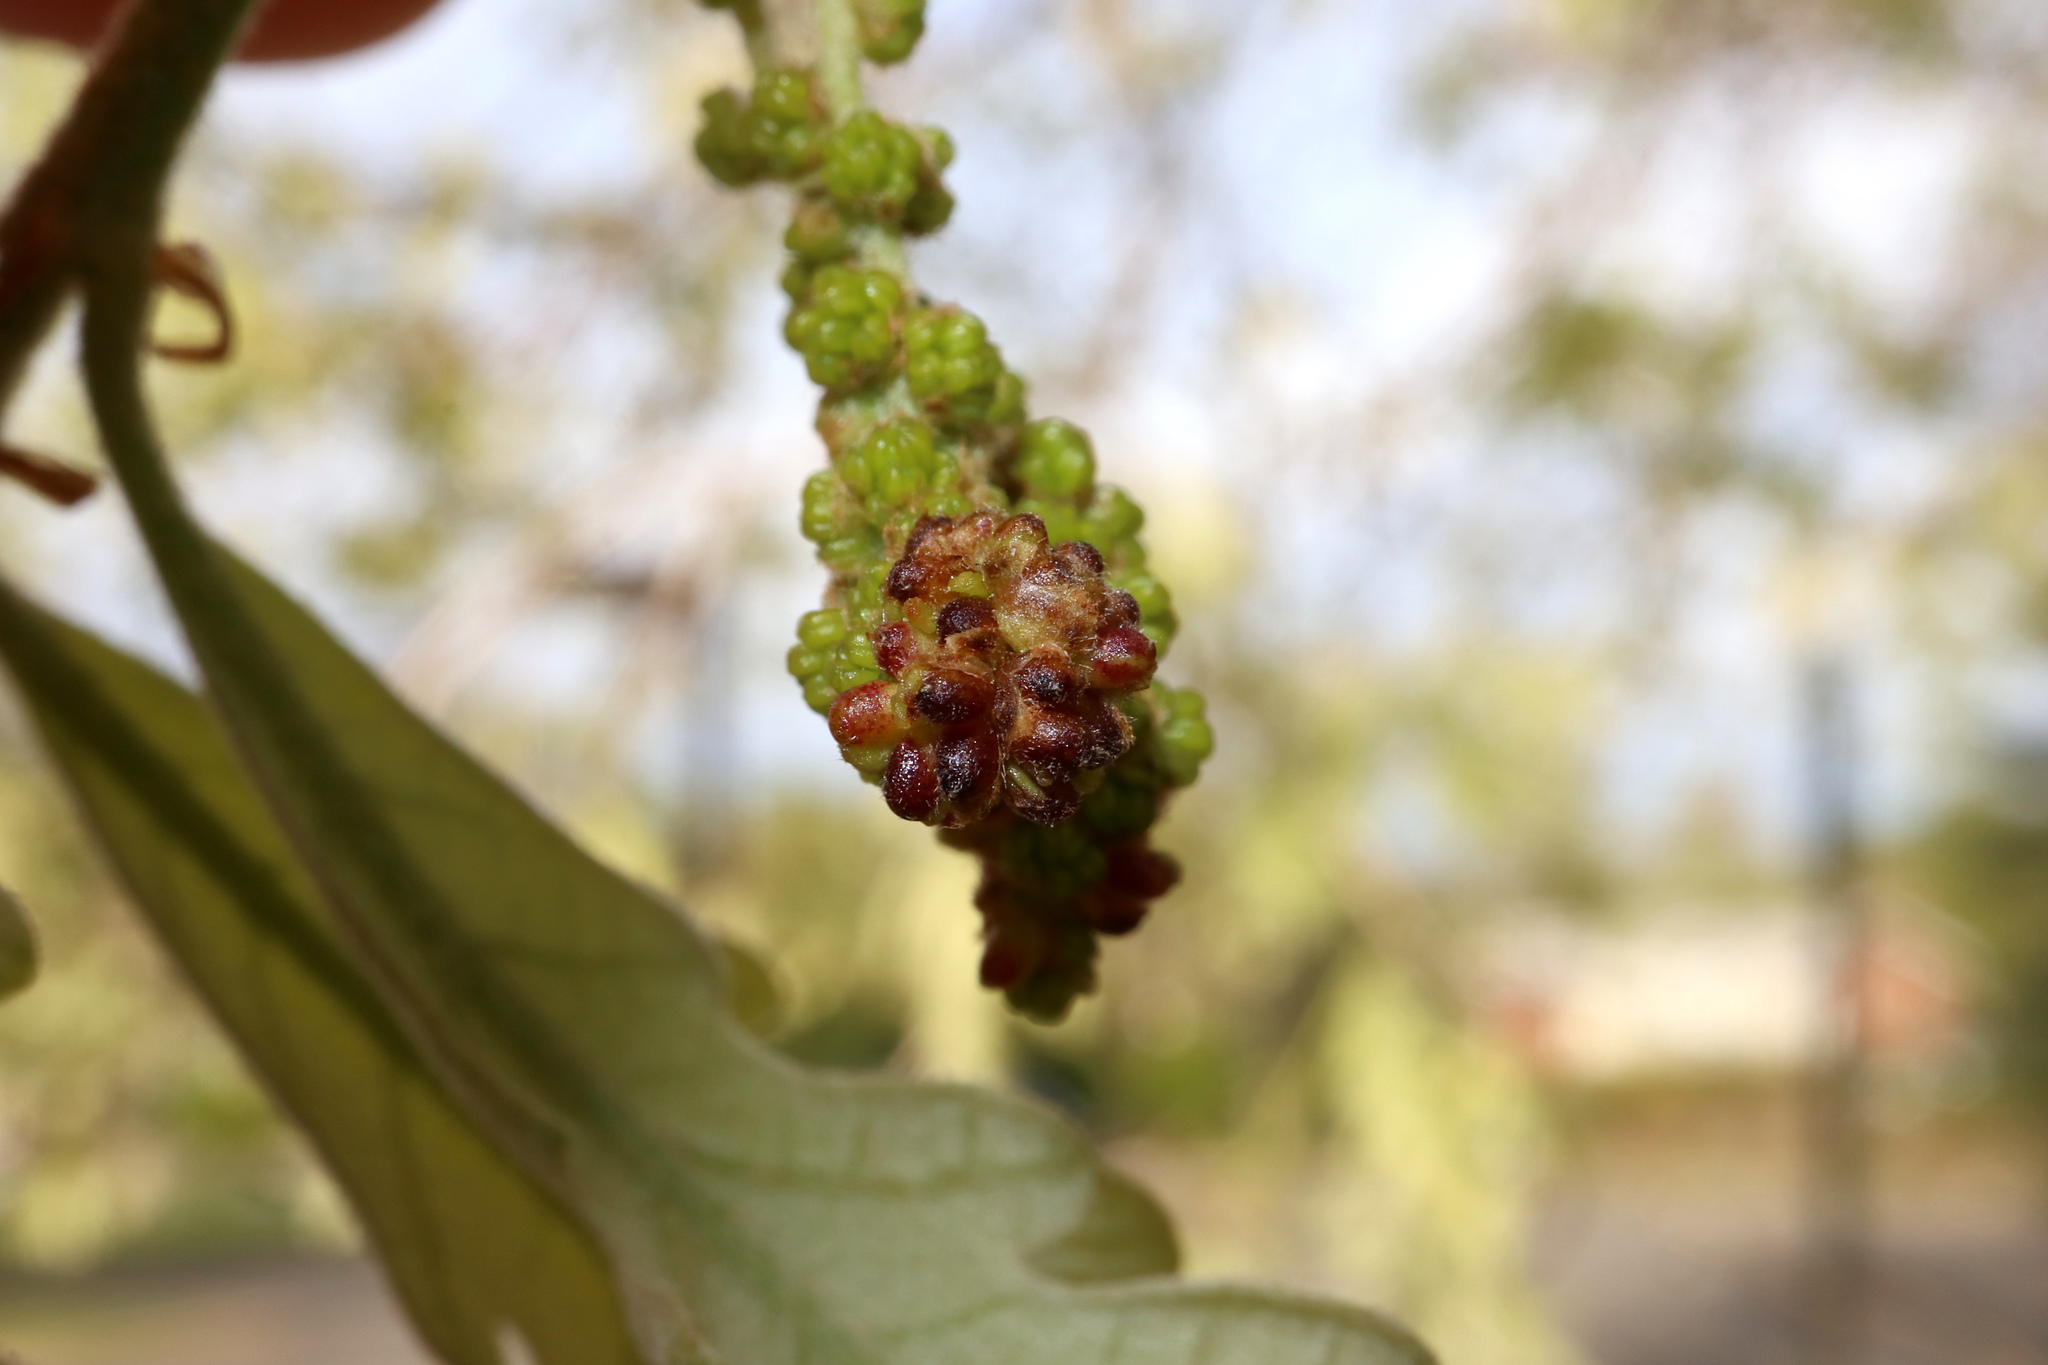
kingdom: Animalia
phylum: Arthropoda
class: Insecta
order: Hymenoptera
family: Cynipidae
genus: Callirhytis
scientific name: Callirhytis
